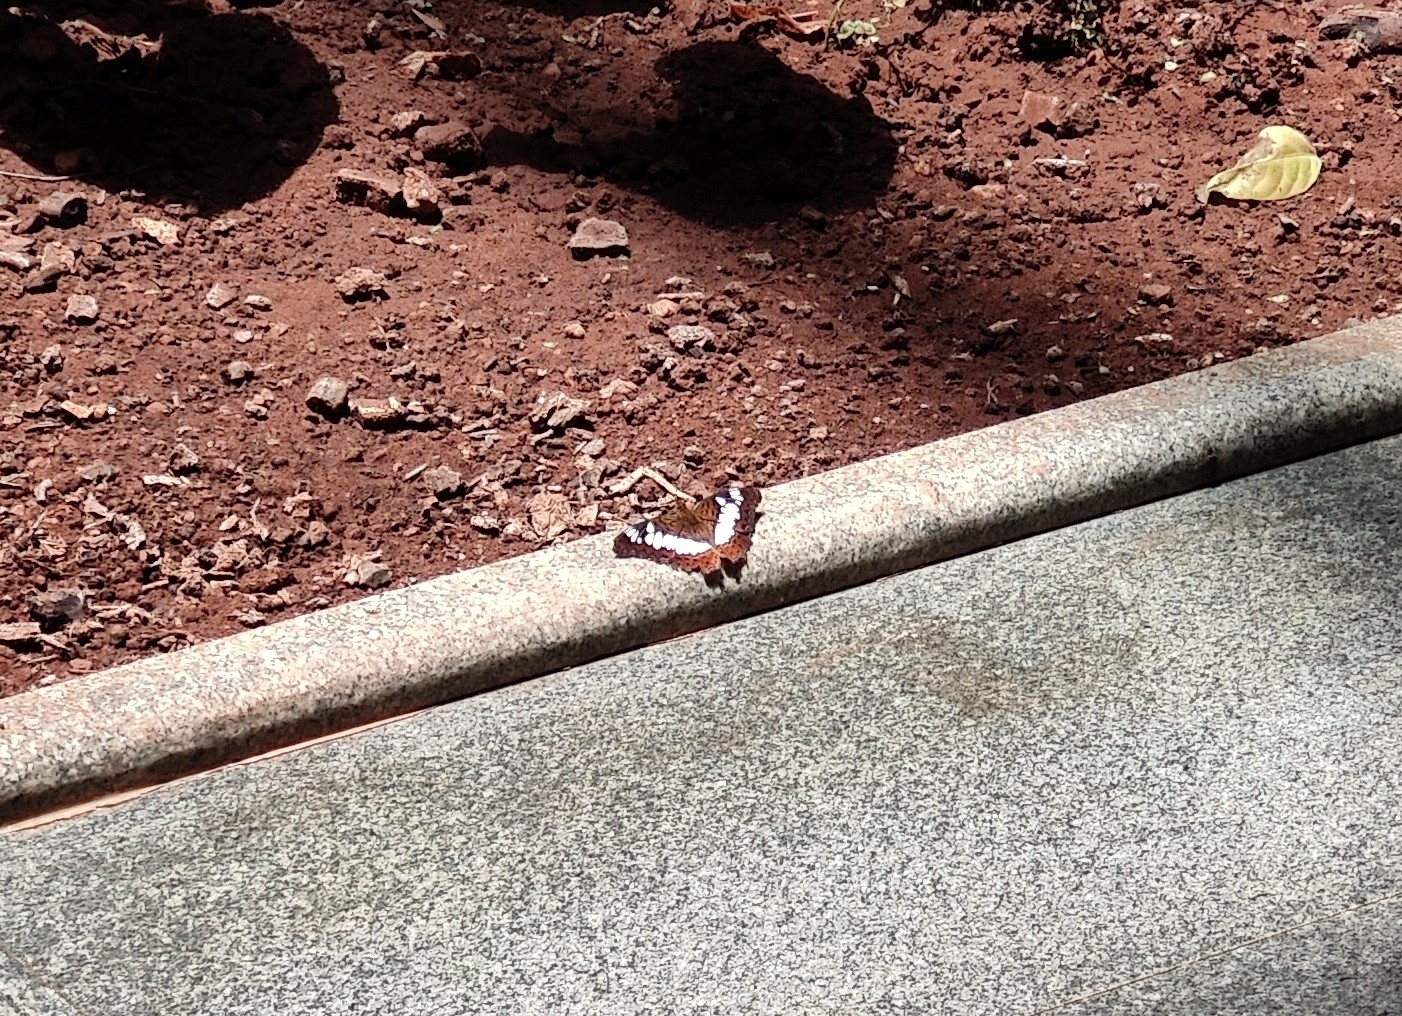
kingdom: Animalia
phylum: Arthropoda
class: Insecta
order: Lepidoptera
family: Nymphalidae
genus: Limenitis
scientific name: Limenitis Moduza procris
